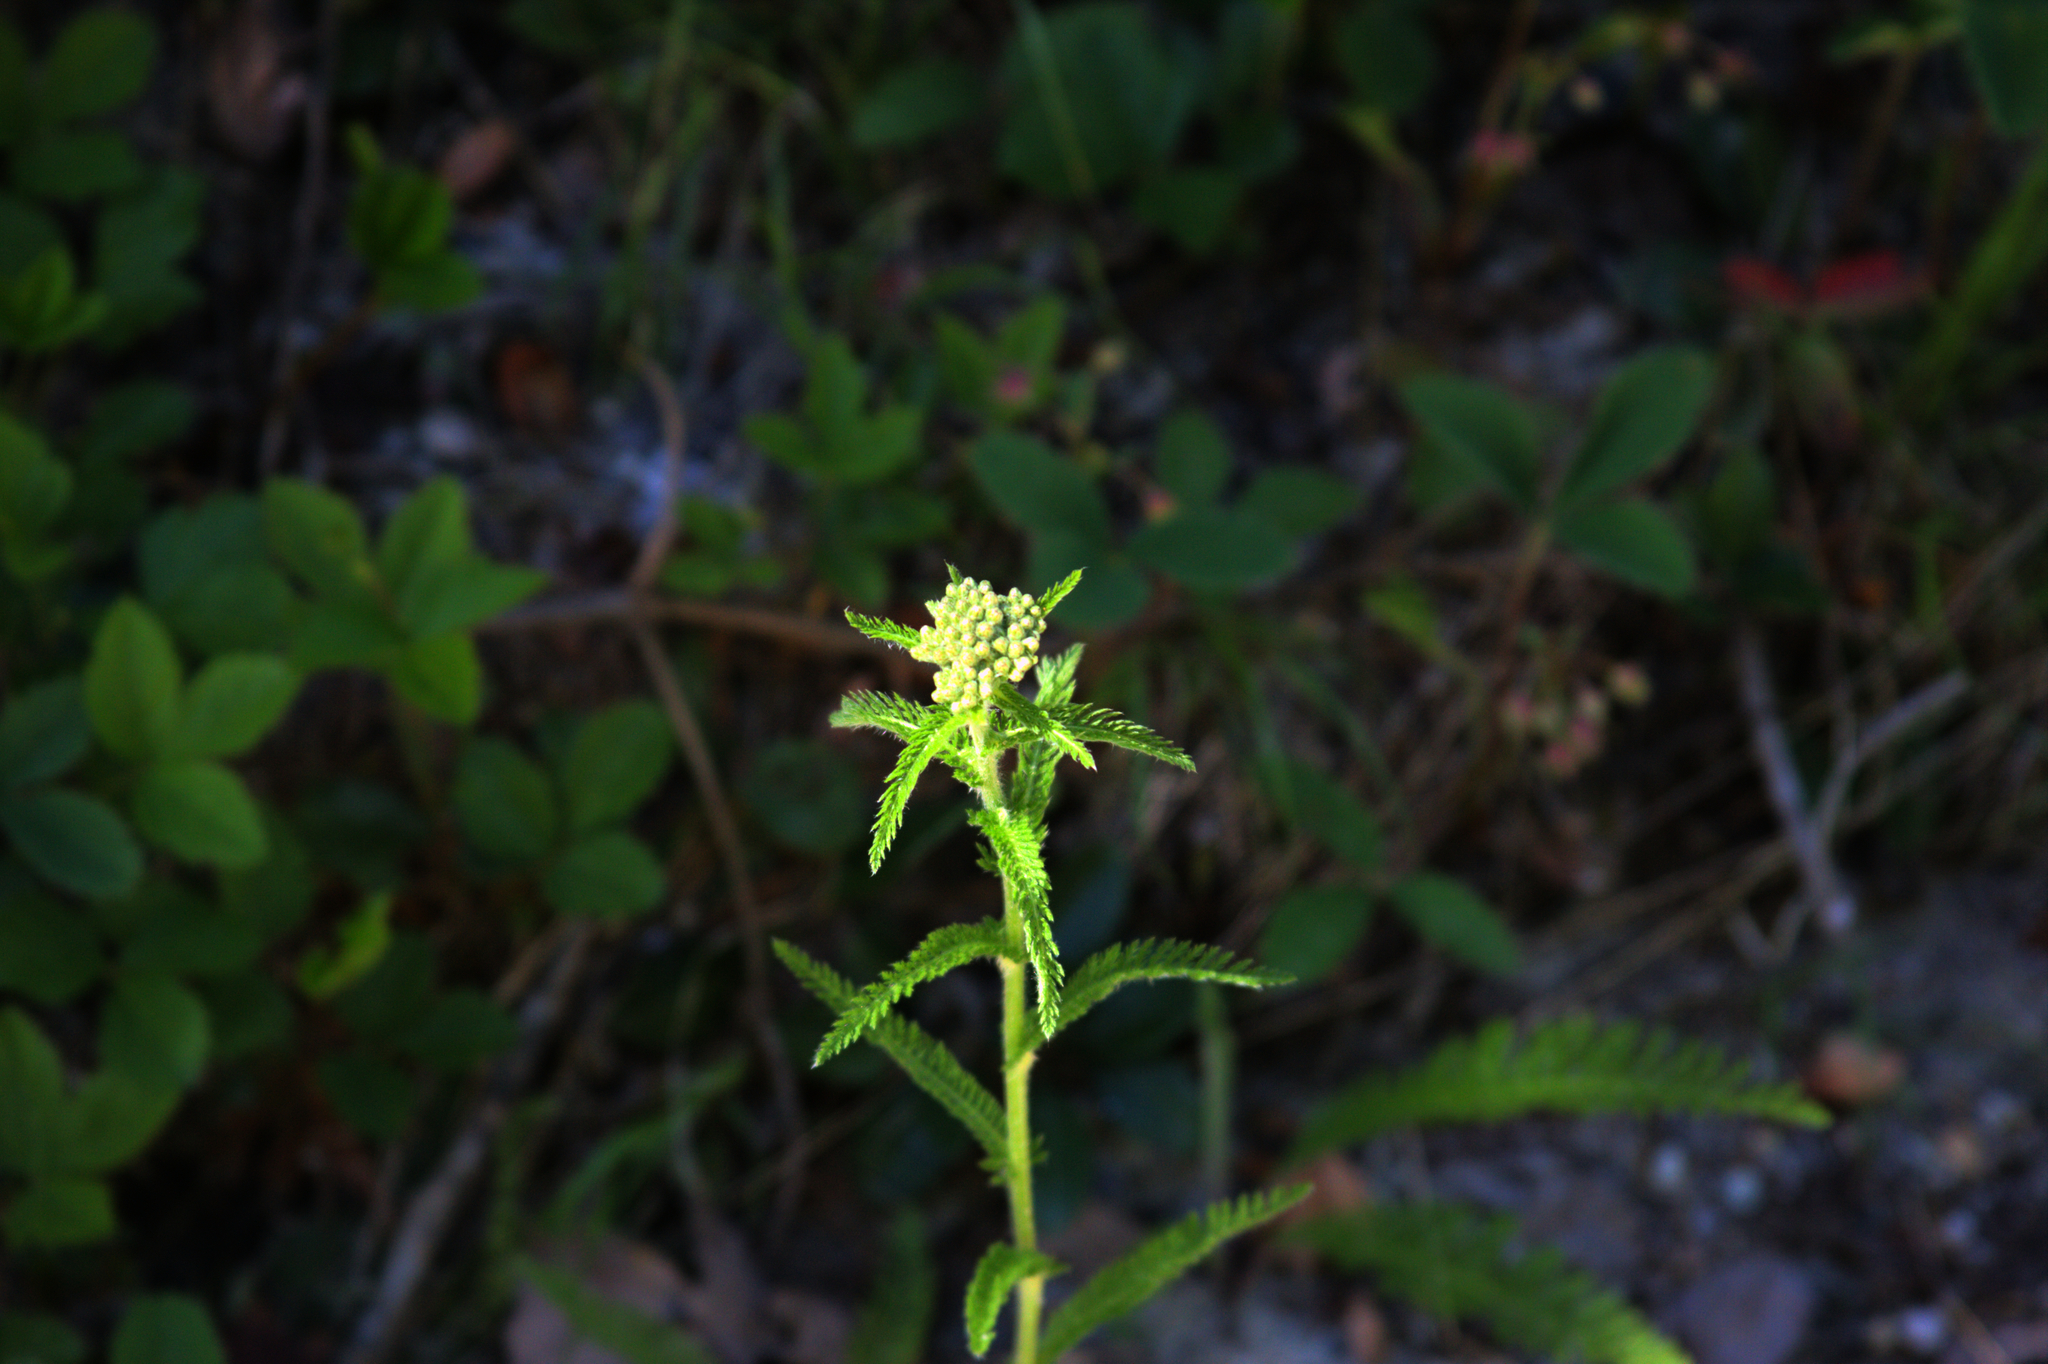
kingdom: Plantae
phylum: Tracheophyta
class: Magnoliopsida
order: Asterales
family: Asteraceae
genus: Achillea
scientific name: Achillea millefolium
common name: Yarrow
